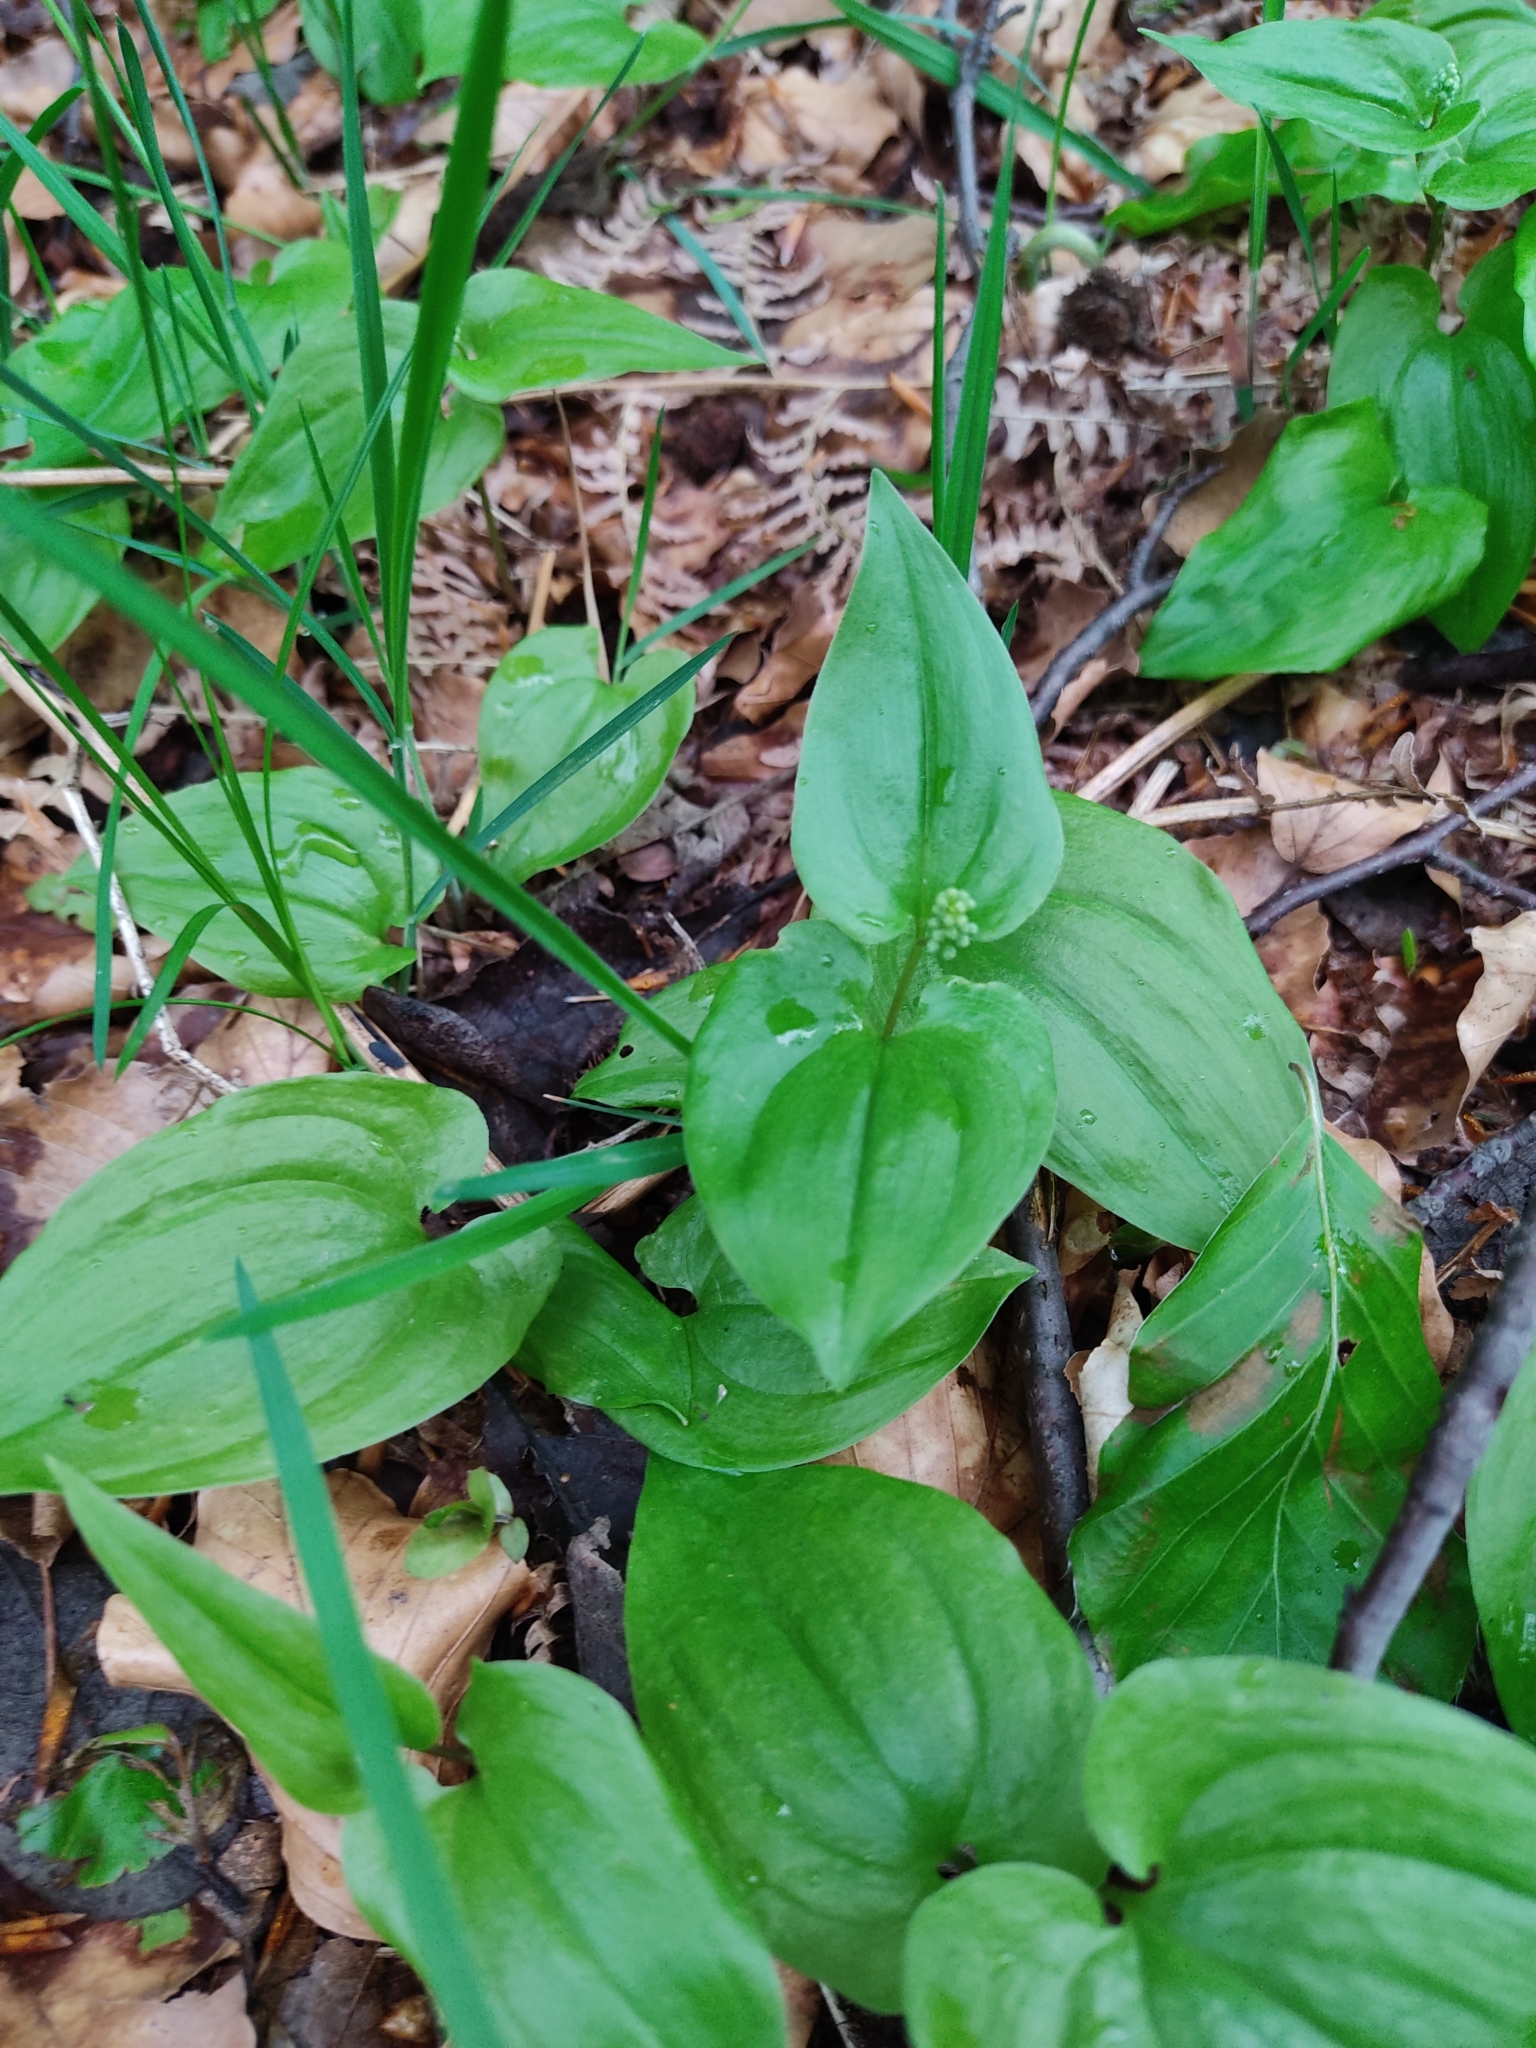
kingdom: Plantae
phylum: Tracheophyta
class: Liliopsida
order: Asparagales
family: Asparagaceae
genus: Maianthemum
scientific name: Maianthemum bifolium
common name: May lily
